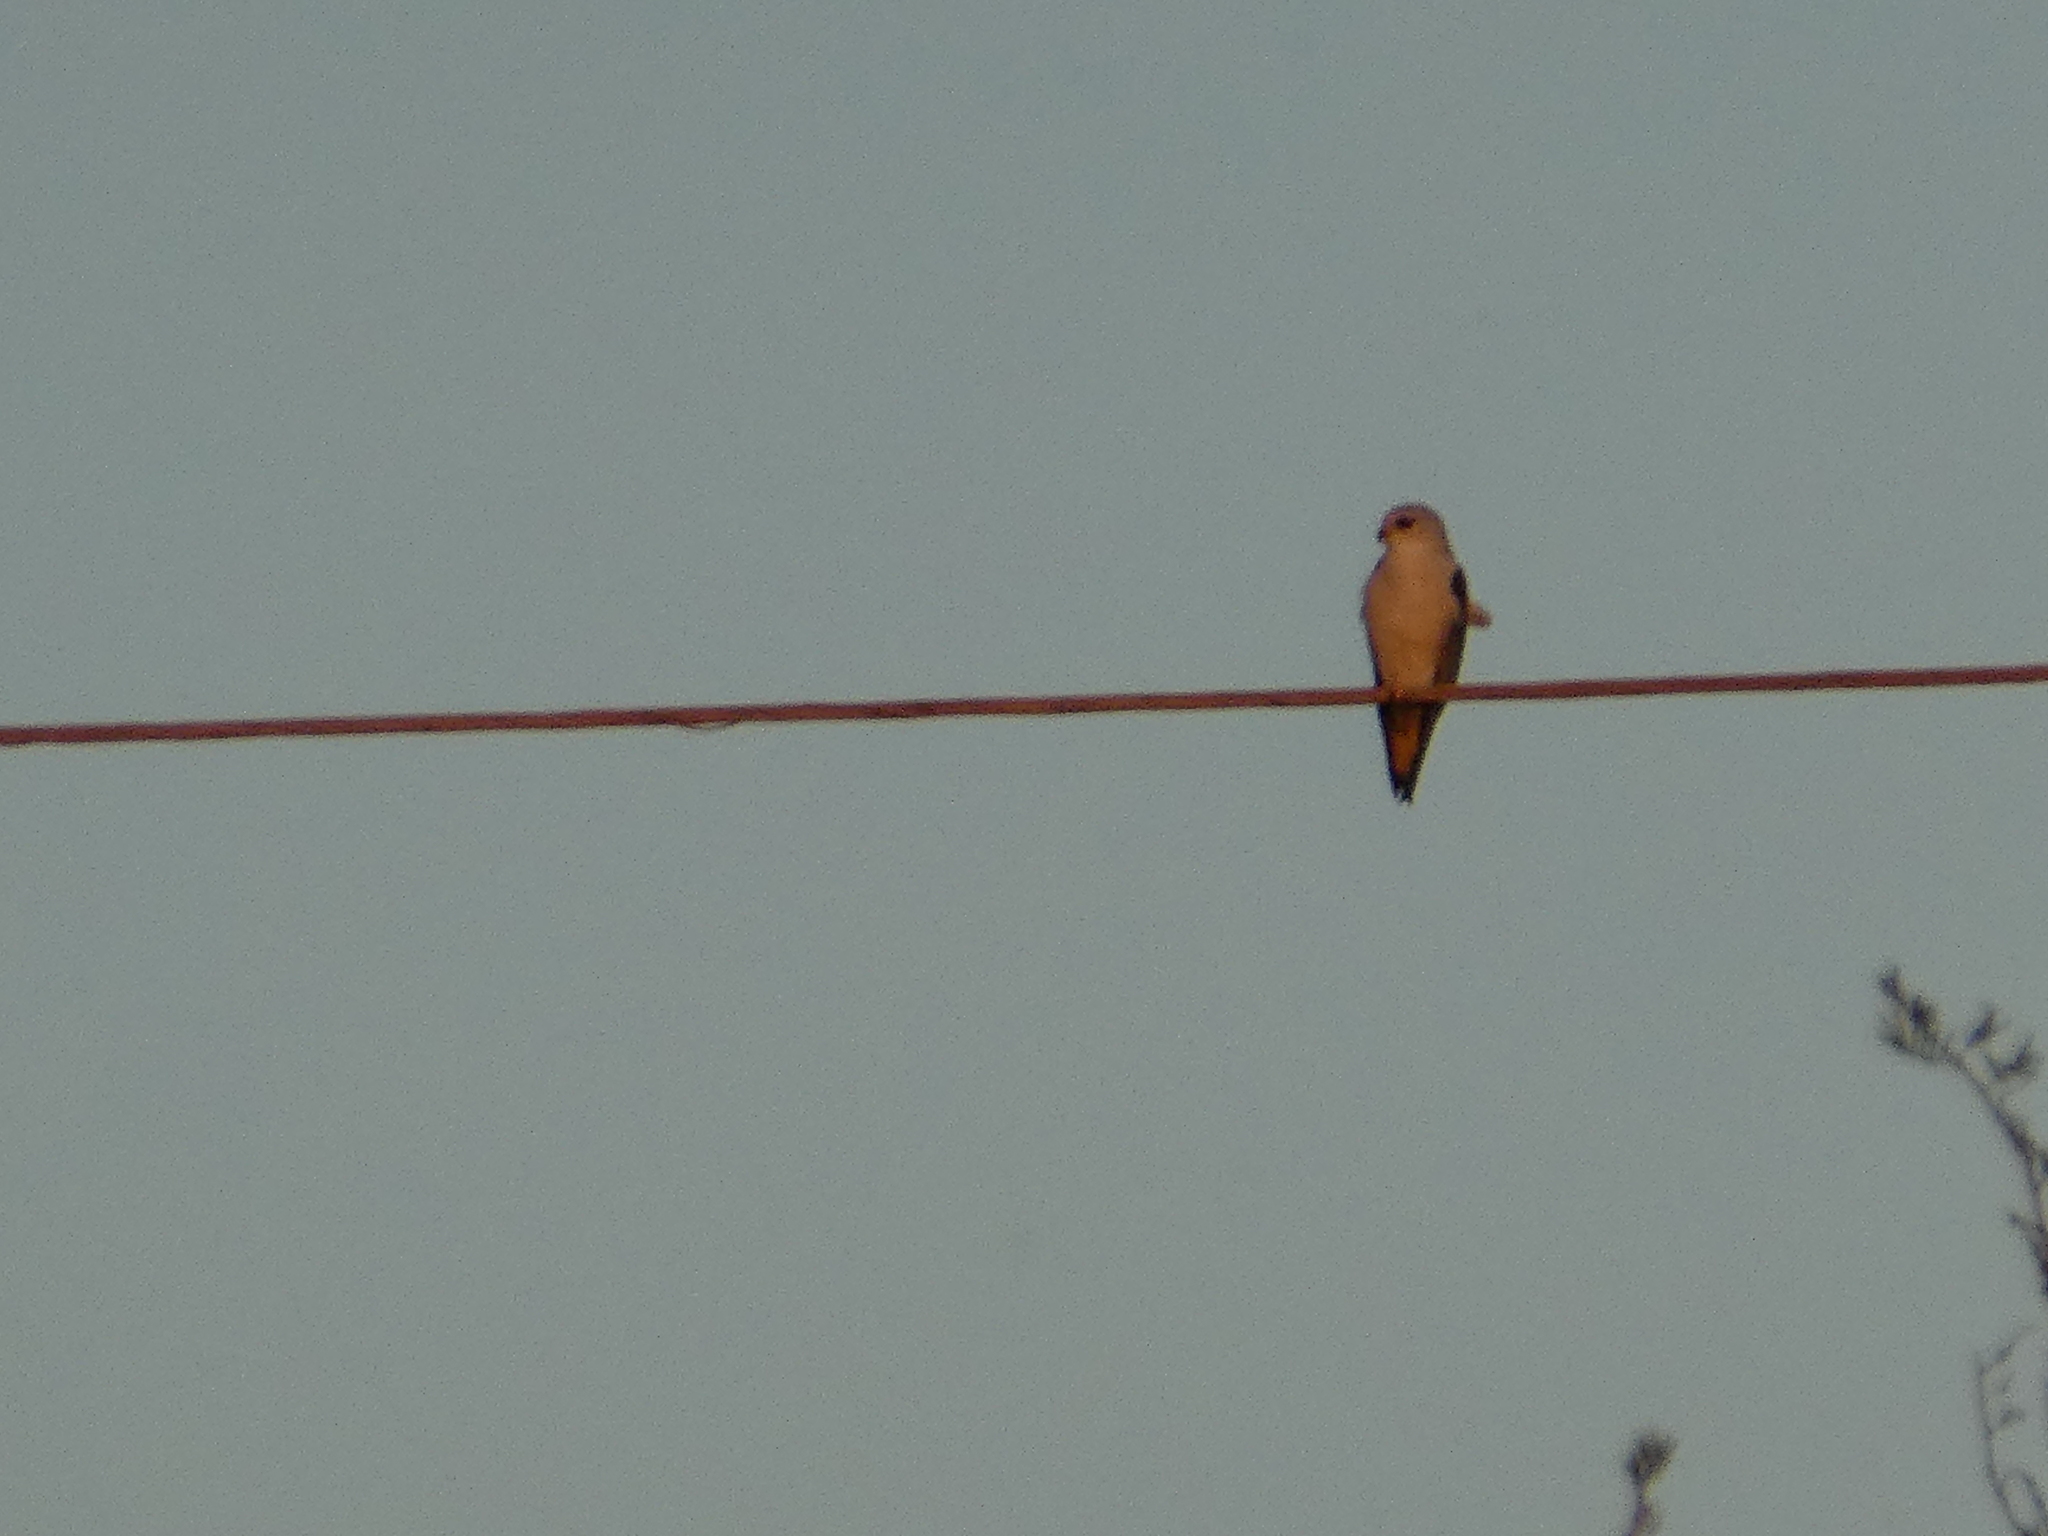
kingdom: Animalia
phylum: Chordata
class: Aves
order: Accipitriformes
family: Accipitridae
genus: Elanus
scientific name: Elanus caeruleus
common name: Black-winged kite
